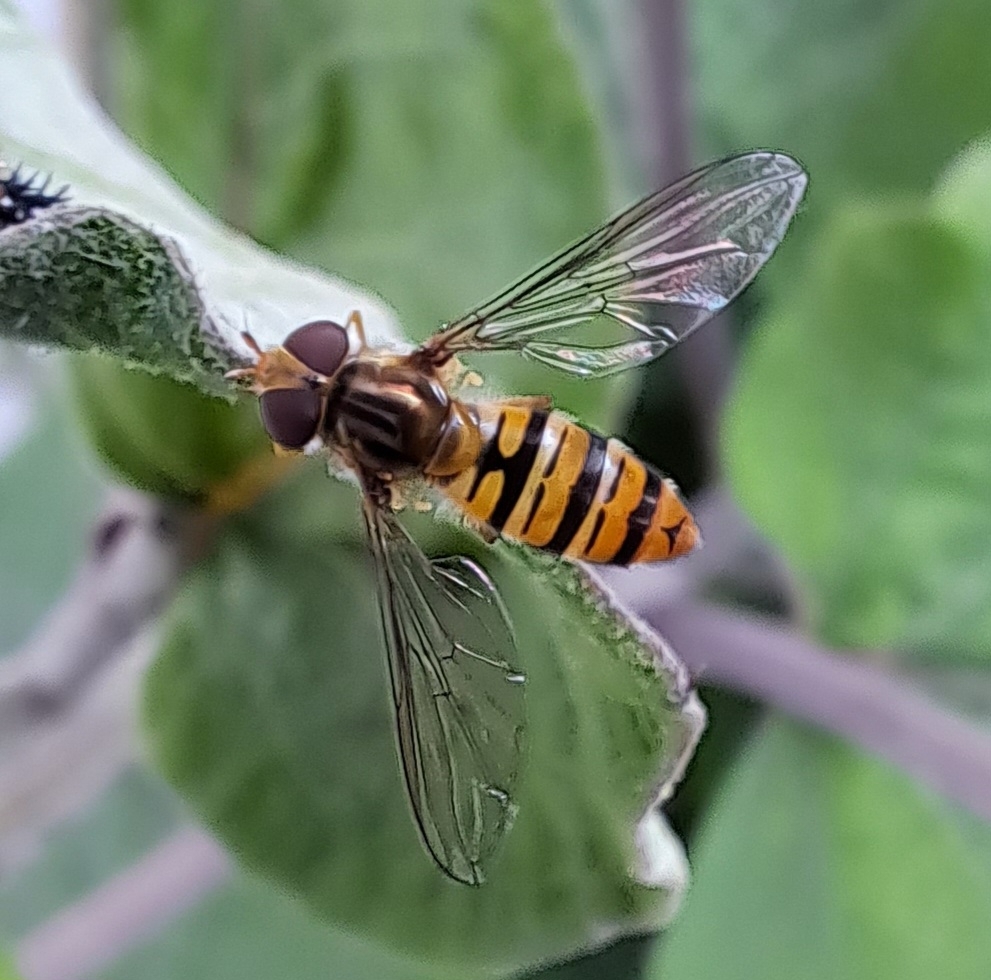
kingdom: Animalia
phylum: Arthropoda
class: Insecta
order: Diptera
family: Syrphidae
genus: Episyrphus
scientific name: Episyrphus balteatus
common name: Marmalade hoverfly
